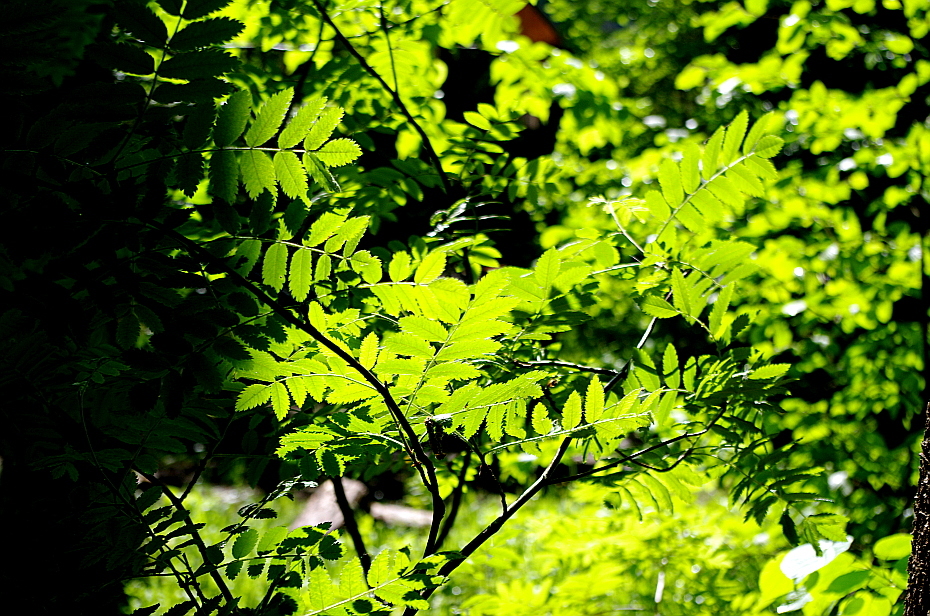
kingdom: Plantae
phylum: Tracheophyta
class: Magnoliopsida
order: Rosales
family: Rosaceae
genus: Sorbus
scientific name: Sorbus aucuparia
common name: Rowan
